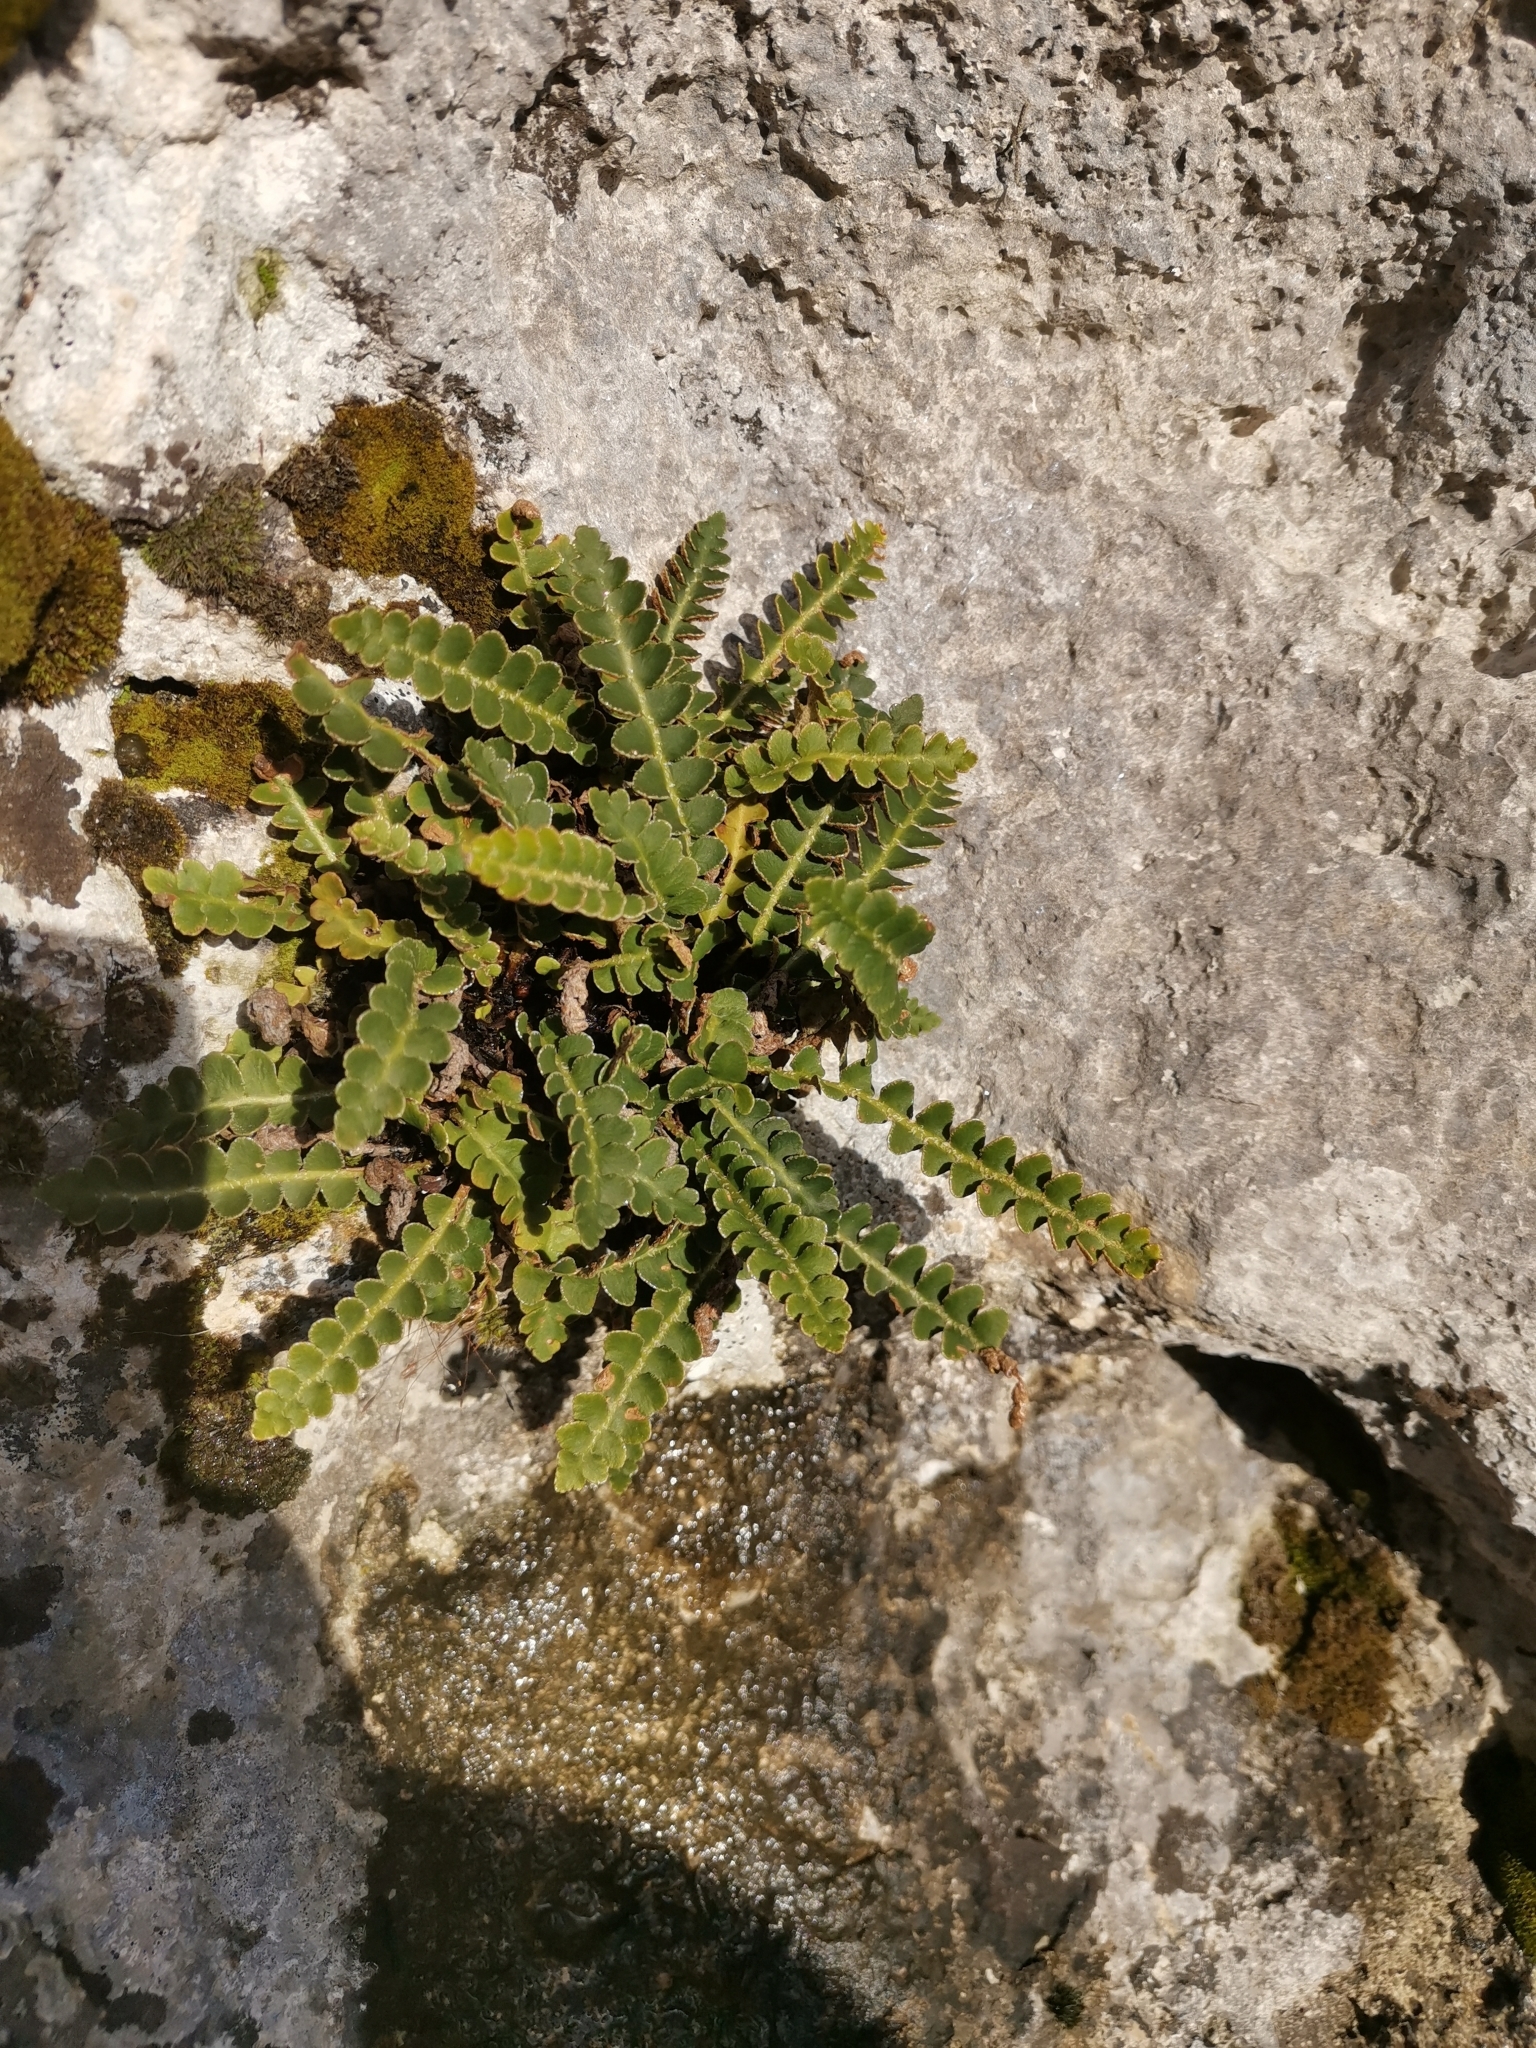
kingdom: Plantae
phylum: Tracheophyta
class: Polypodiopsida
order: Polypodiales
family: Aspleniaceae
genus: Asplenium
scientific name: Asplenium ceterach
